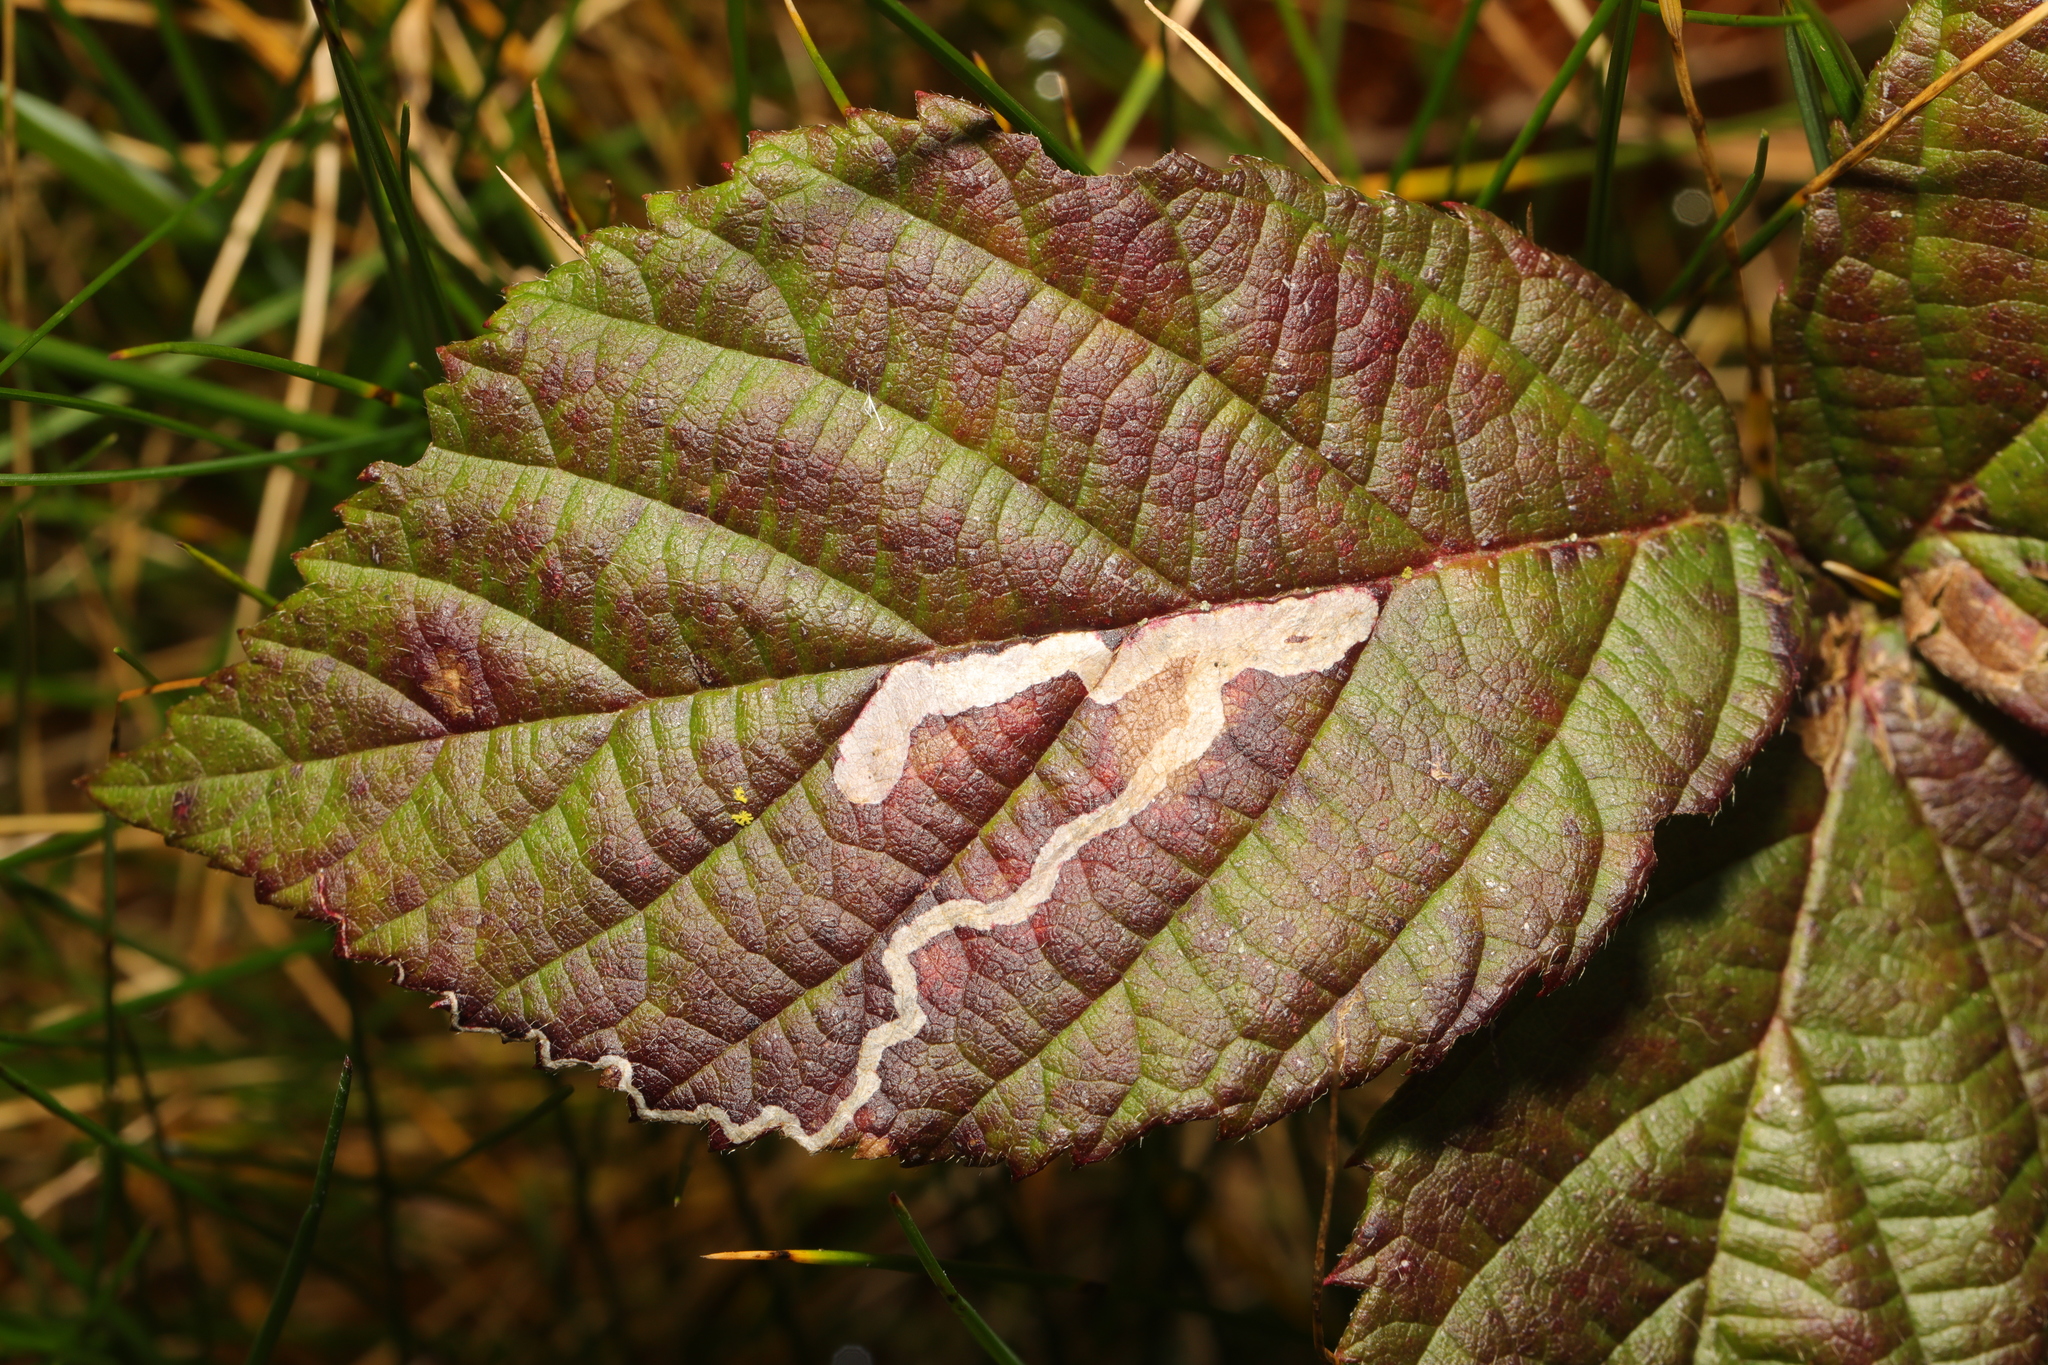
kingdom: Animalia
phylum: Arthropoda
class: Insecta
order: Lepidoptera
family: Nepticulidae
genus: Stigmella
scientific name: Stigmella aurella
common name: Golden pigmy
